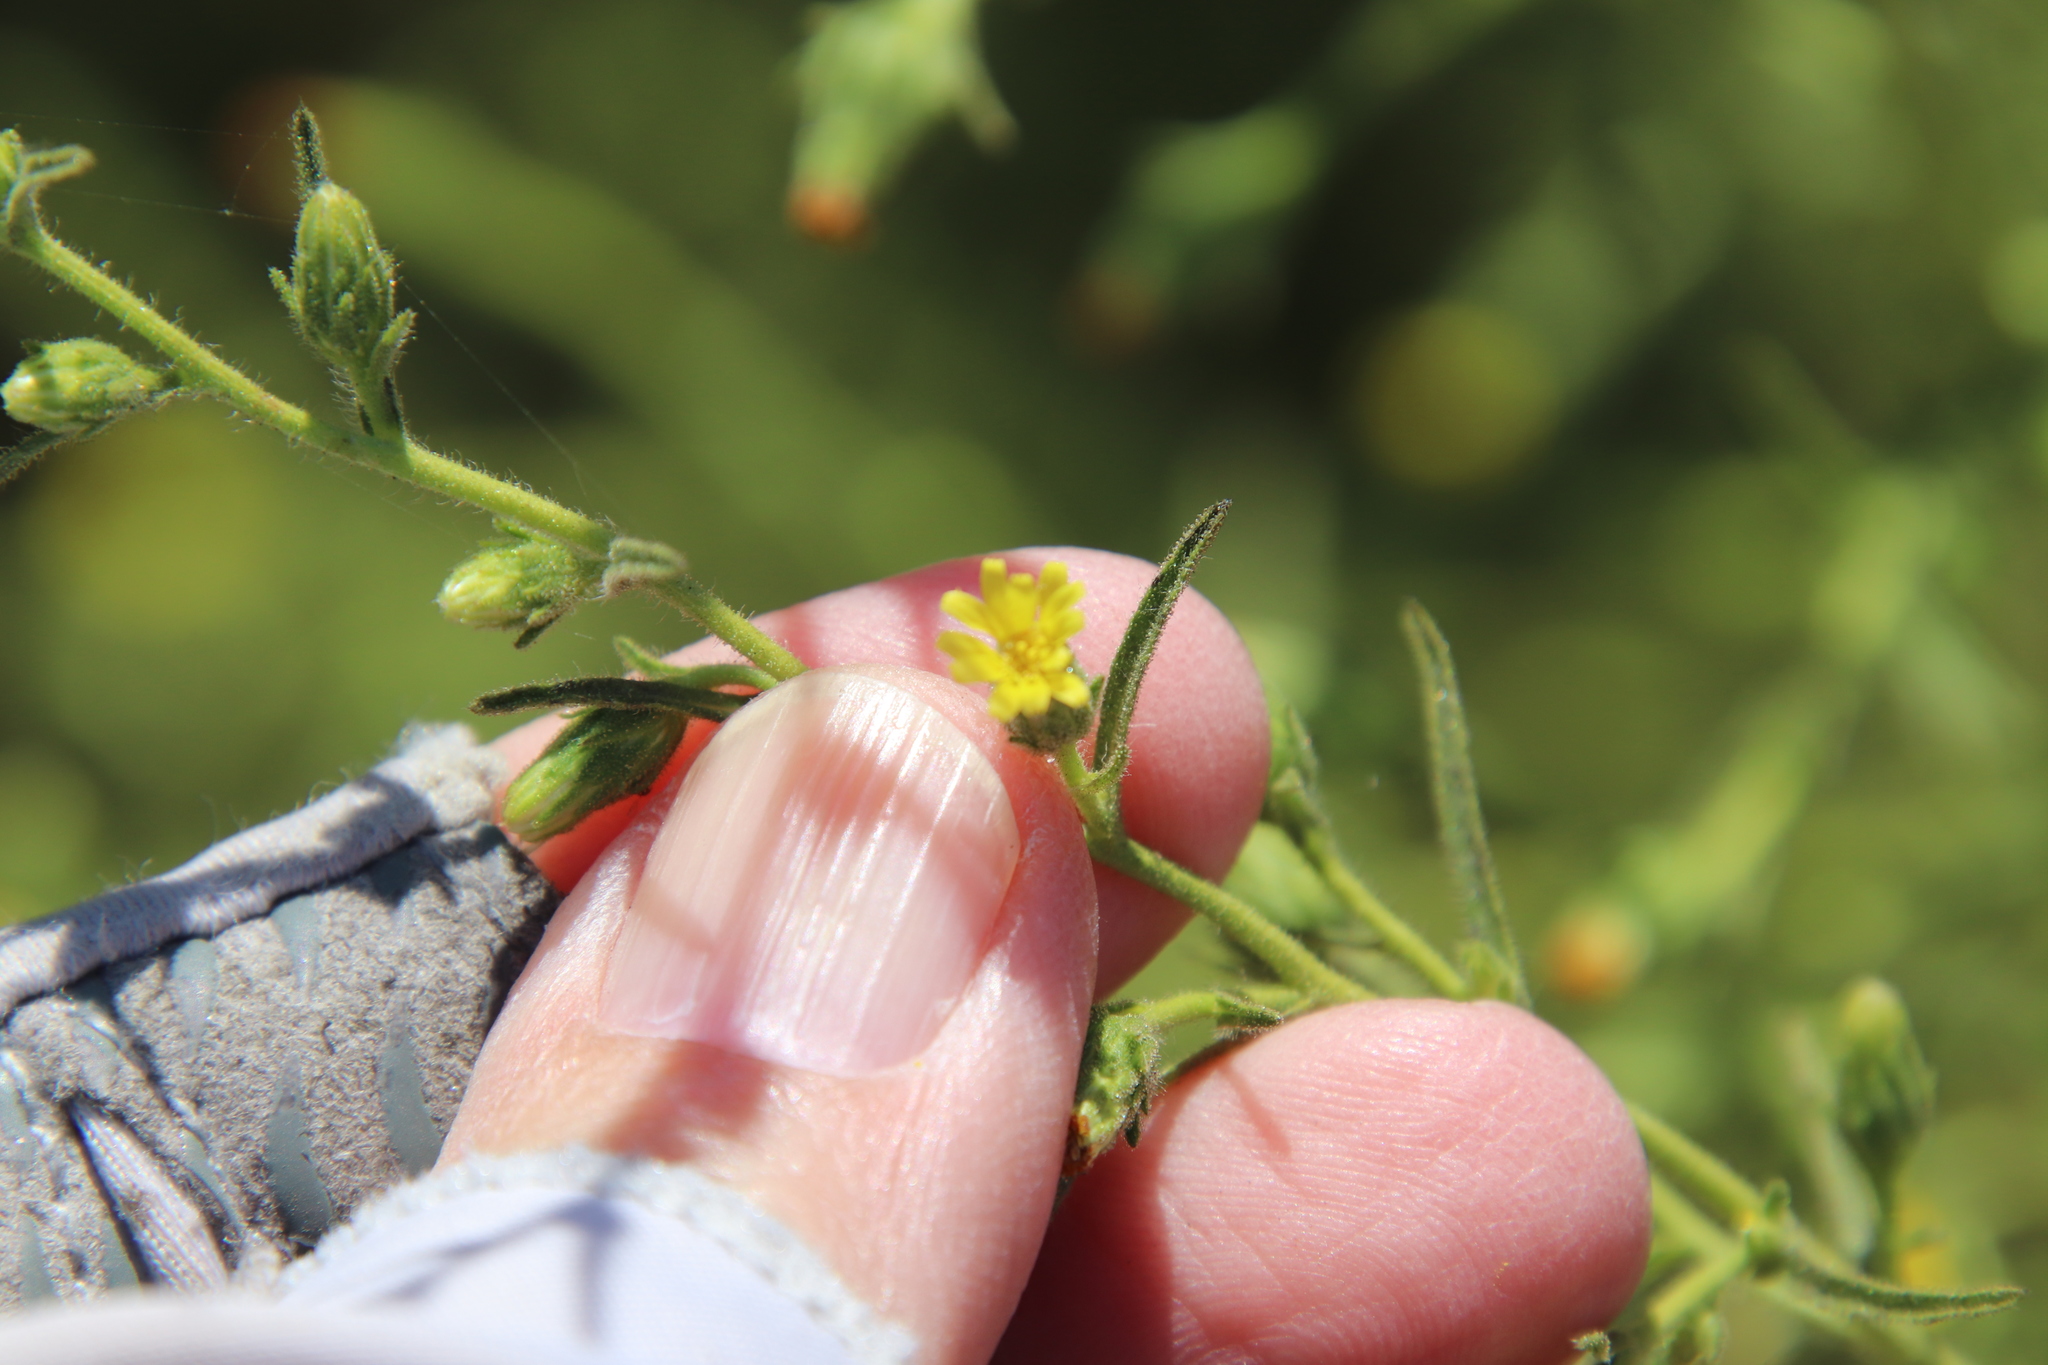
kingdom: Plantae
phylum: Tracheophyta
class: Magnoliopsida
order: Asterales
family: Asteraceae
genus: Dittrichia
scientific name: Dittrichia graveolens
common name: Stinking fleabane
